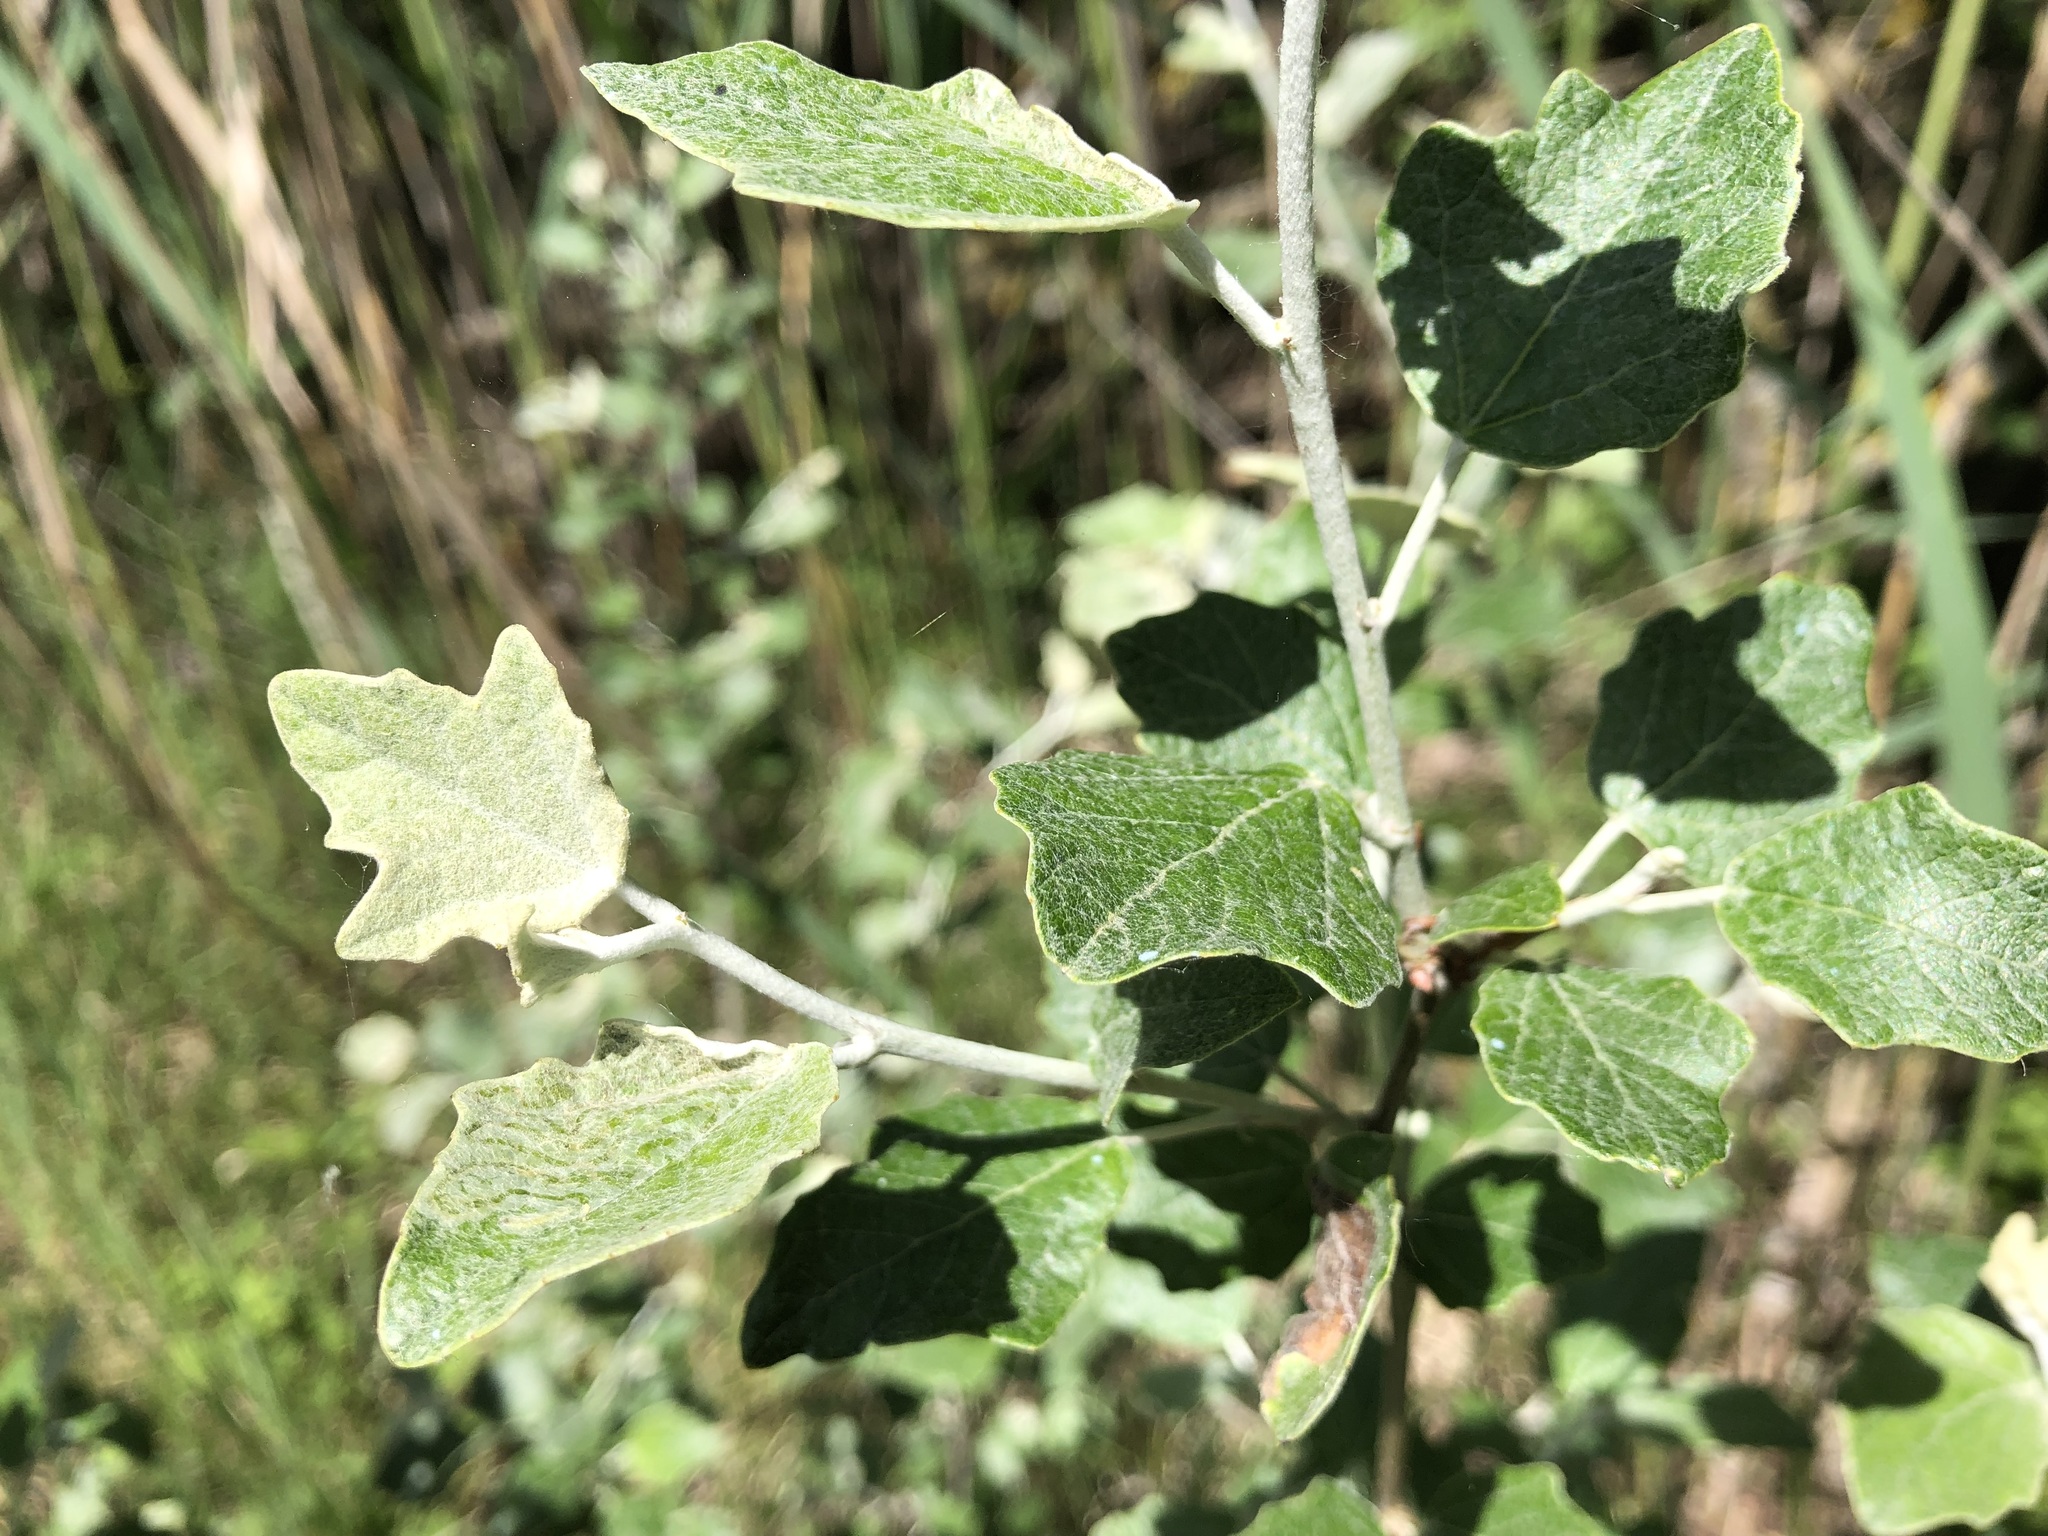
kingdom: Plantae
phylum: Tracheophyta
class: Magnoliopsida
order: Malpighiales
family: Salicaceae
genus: Populus
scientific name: Populus alba
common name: White poplar
